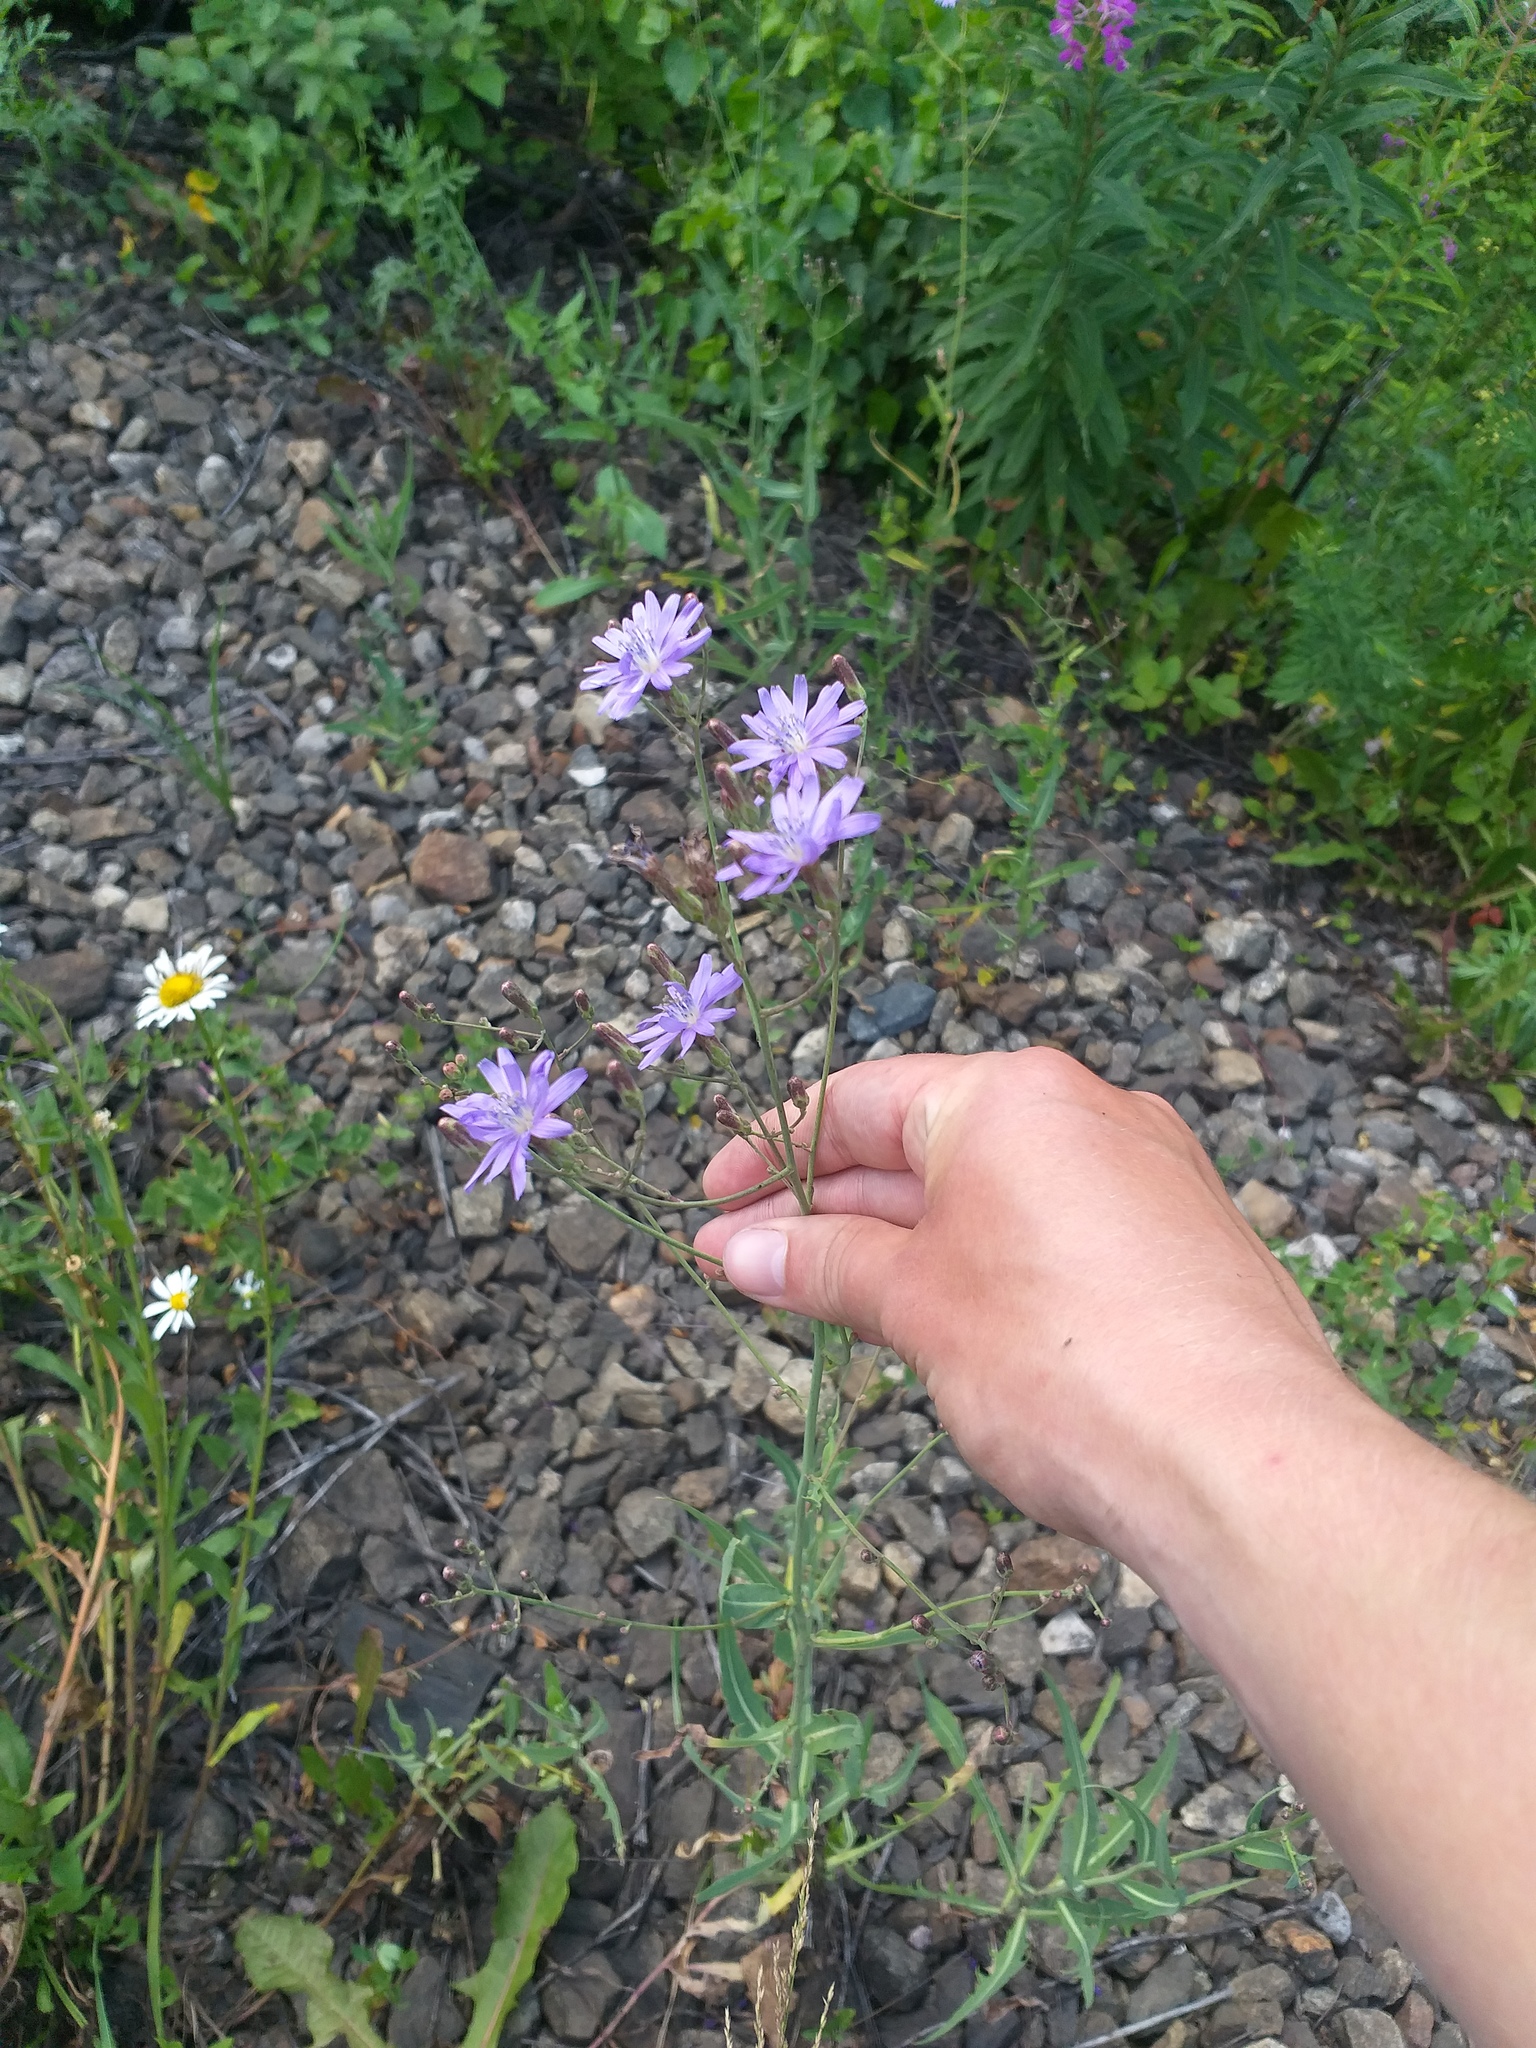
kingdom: Plantae
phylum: Tracheophyta
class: Magnoliopsida
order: Asterales
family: Asteraceae
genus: Lactuca
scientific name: Lactuca tatarica
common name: Blue lettuce
